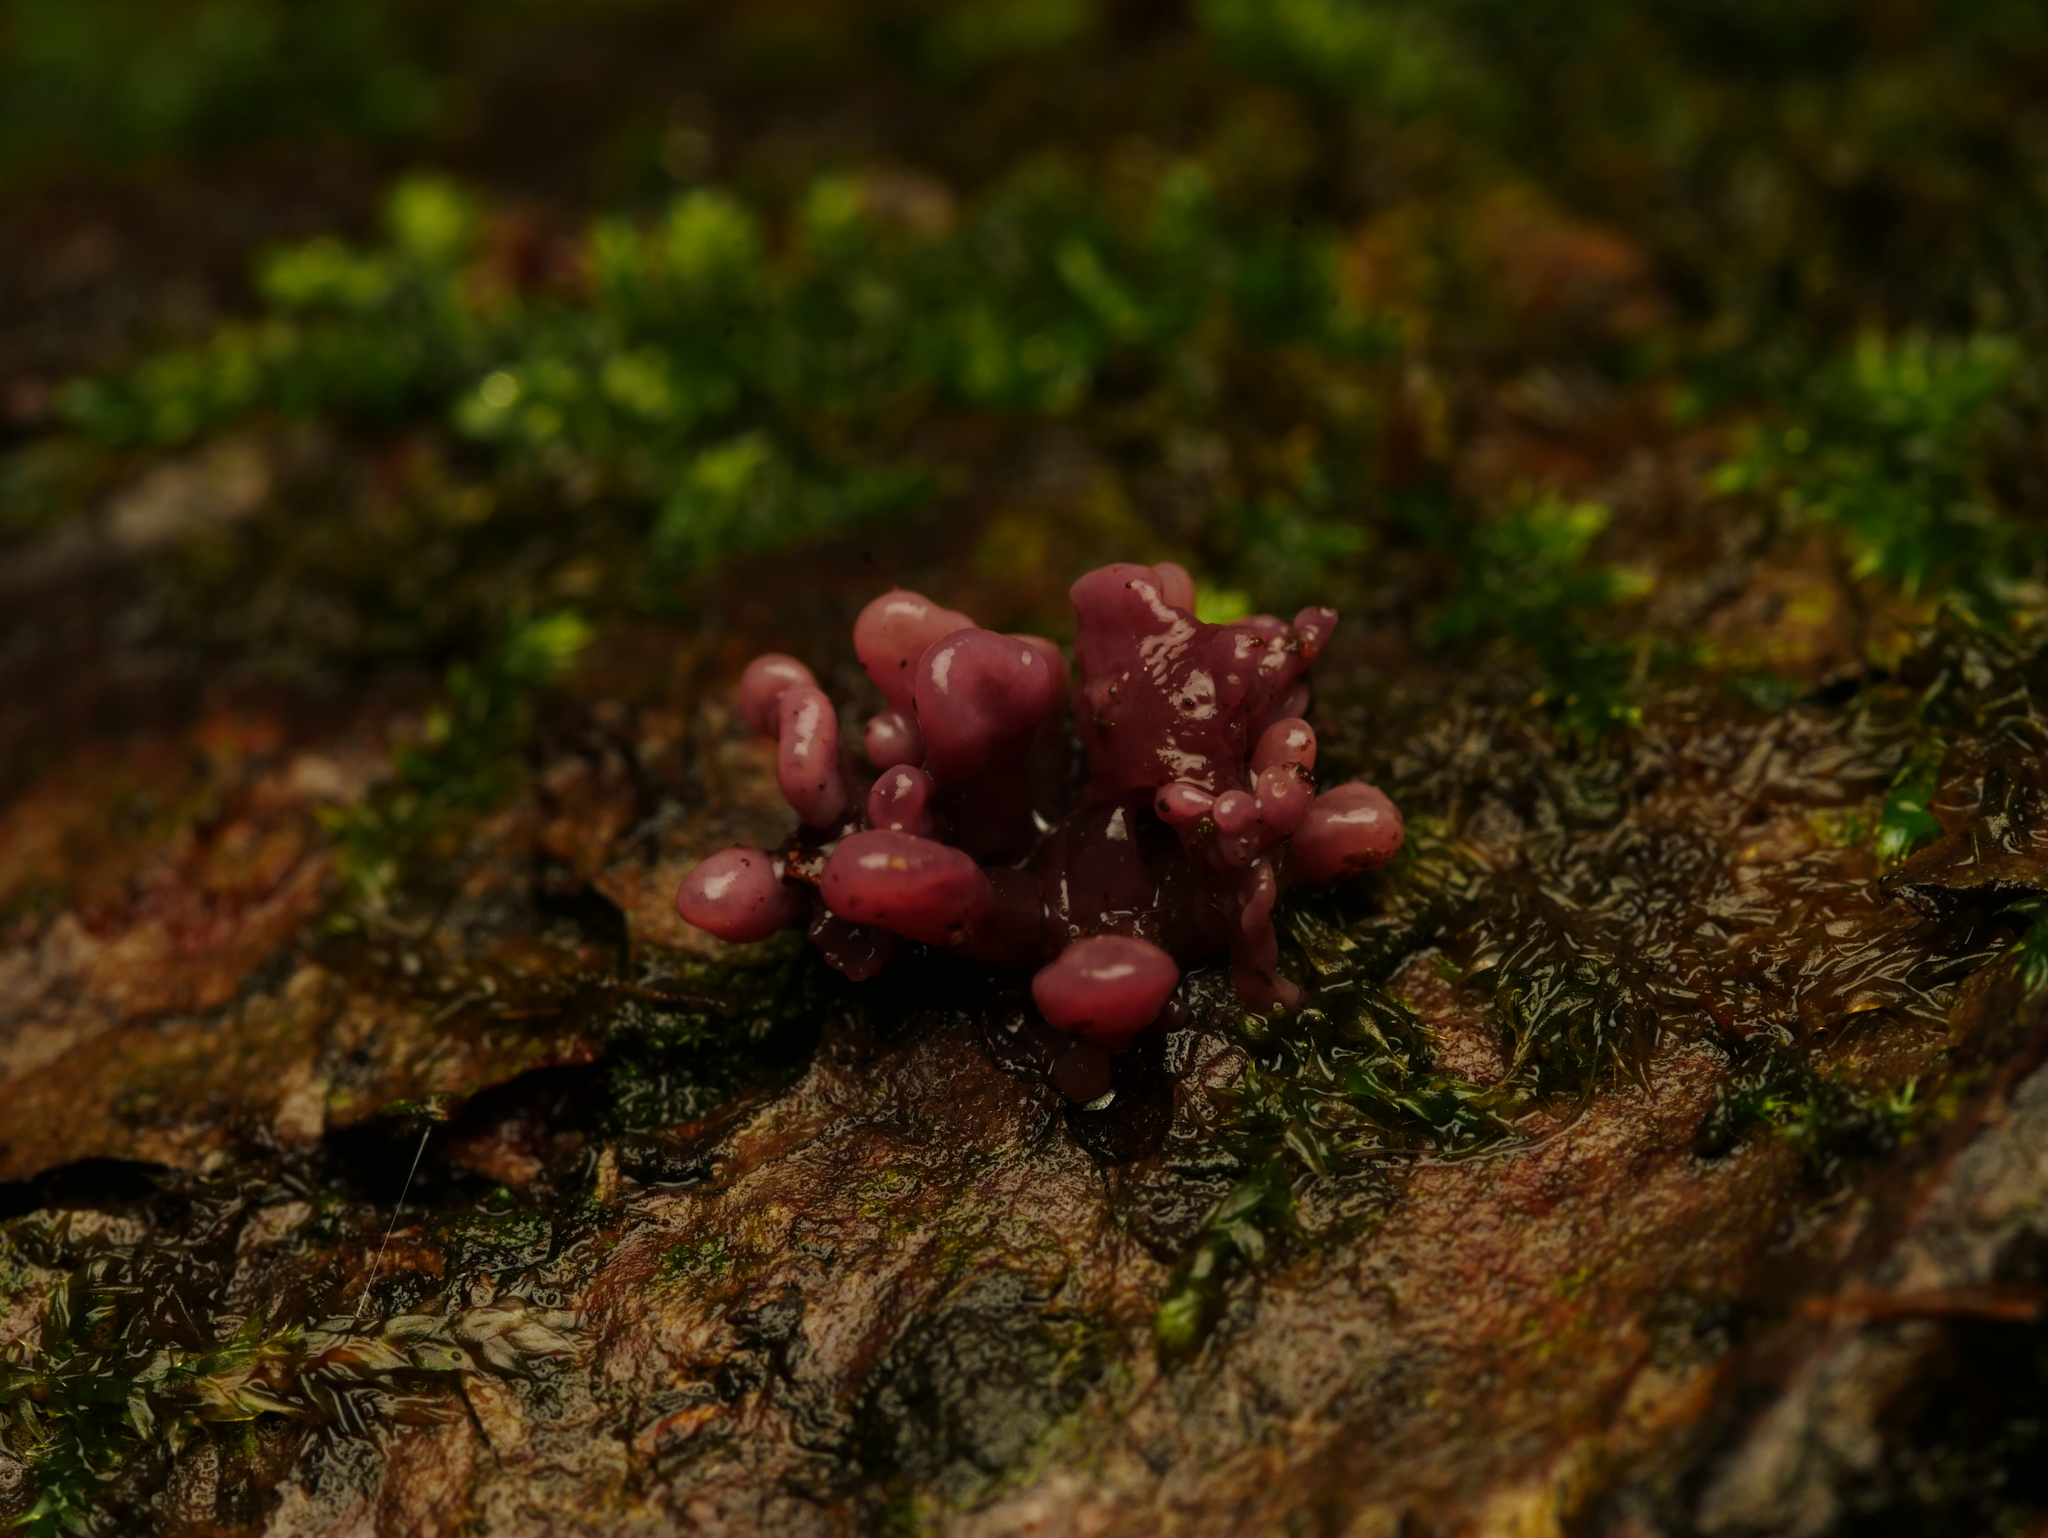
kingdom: Fungi
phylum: Ascomycota
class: Leotiomycetes
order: Helotiales
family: Gelatinodiscaceae
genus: Ascocoryne
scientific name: Ascocoryne sarcoides
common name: Purple jellydisc
